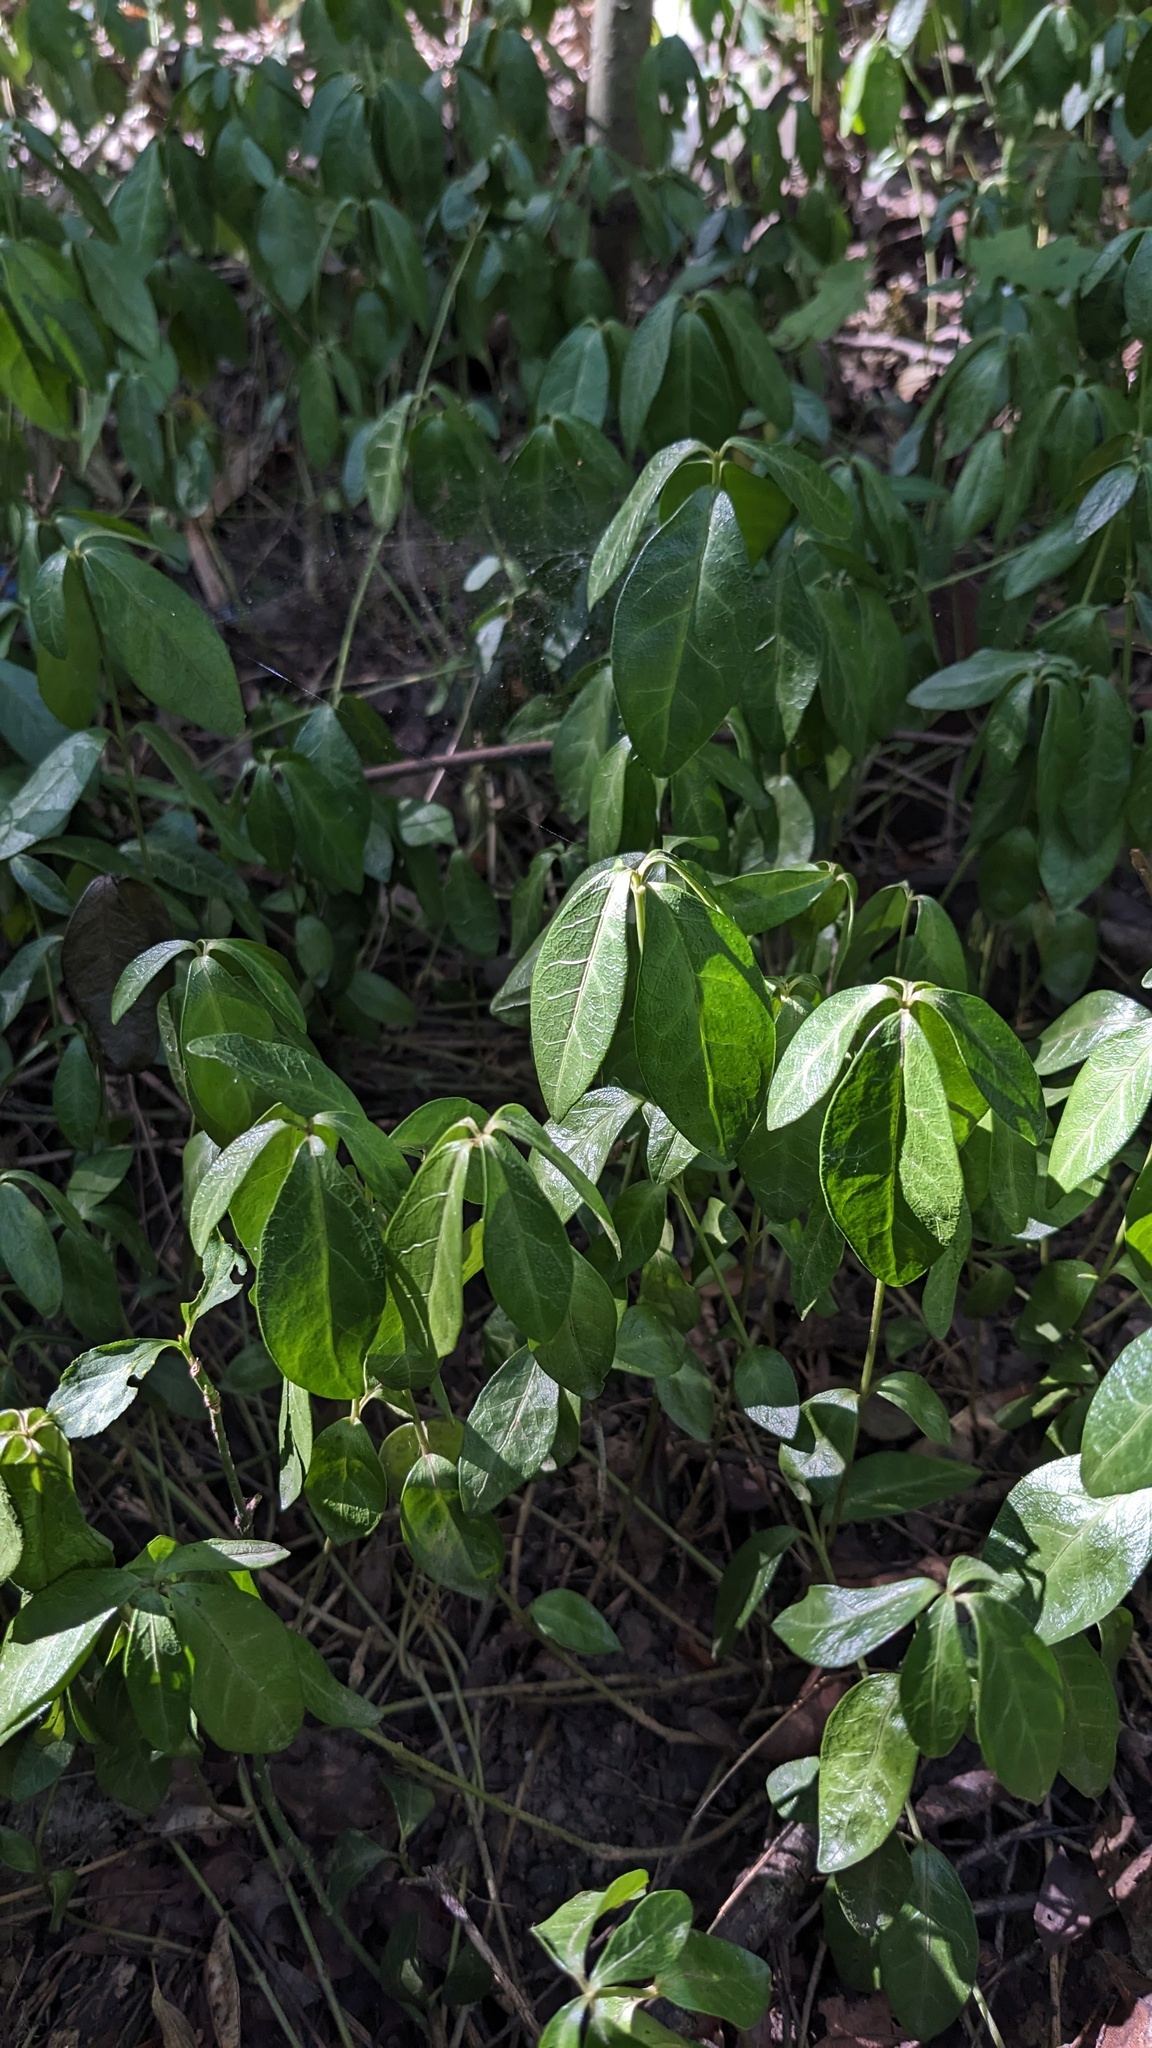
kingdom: Plantae
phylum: Tracheophyta
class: Magnoliopsida
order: Gentianales
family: Apocynaceae
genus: Vinca
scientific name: Vinca minor
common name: Lesser periwinkle
